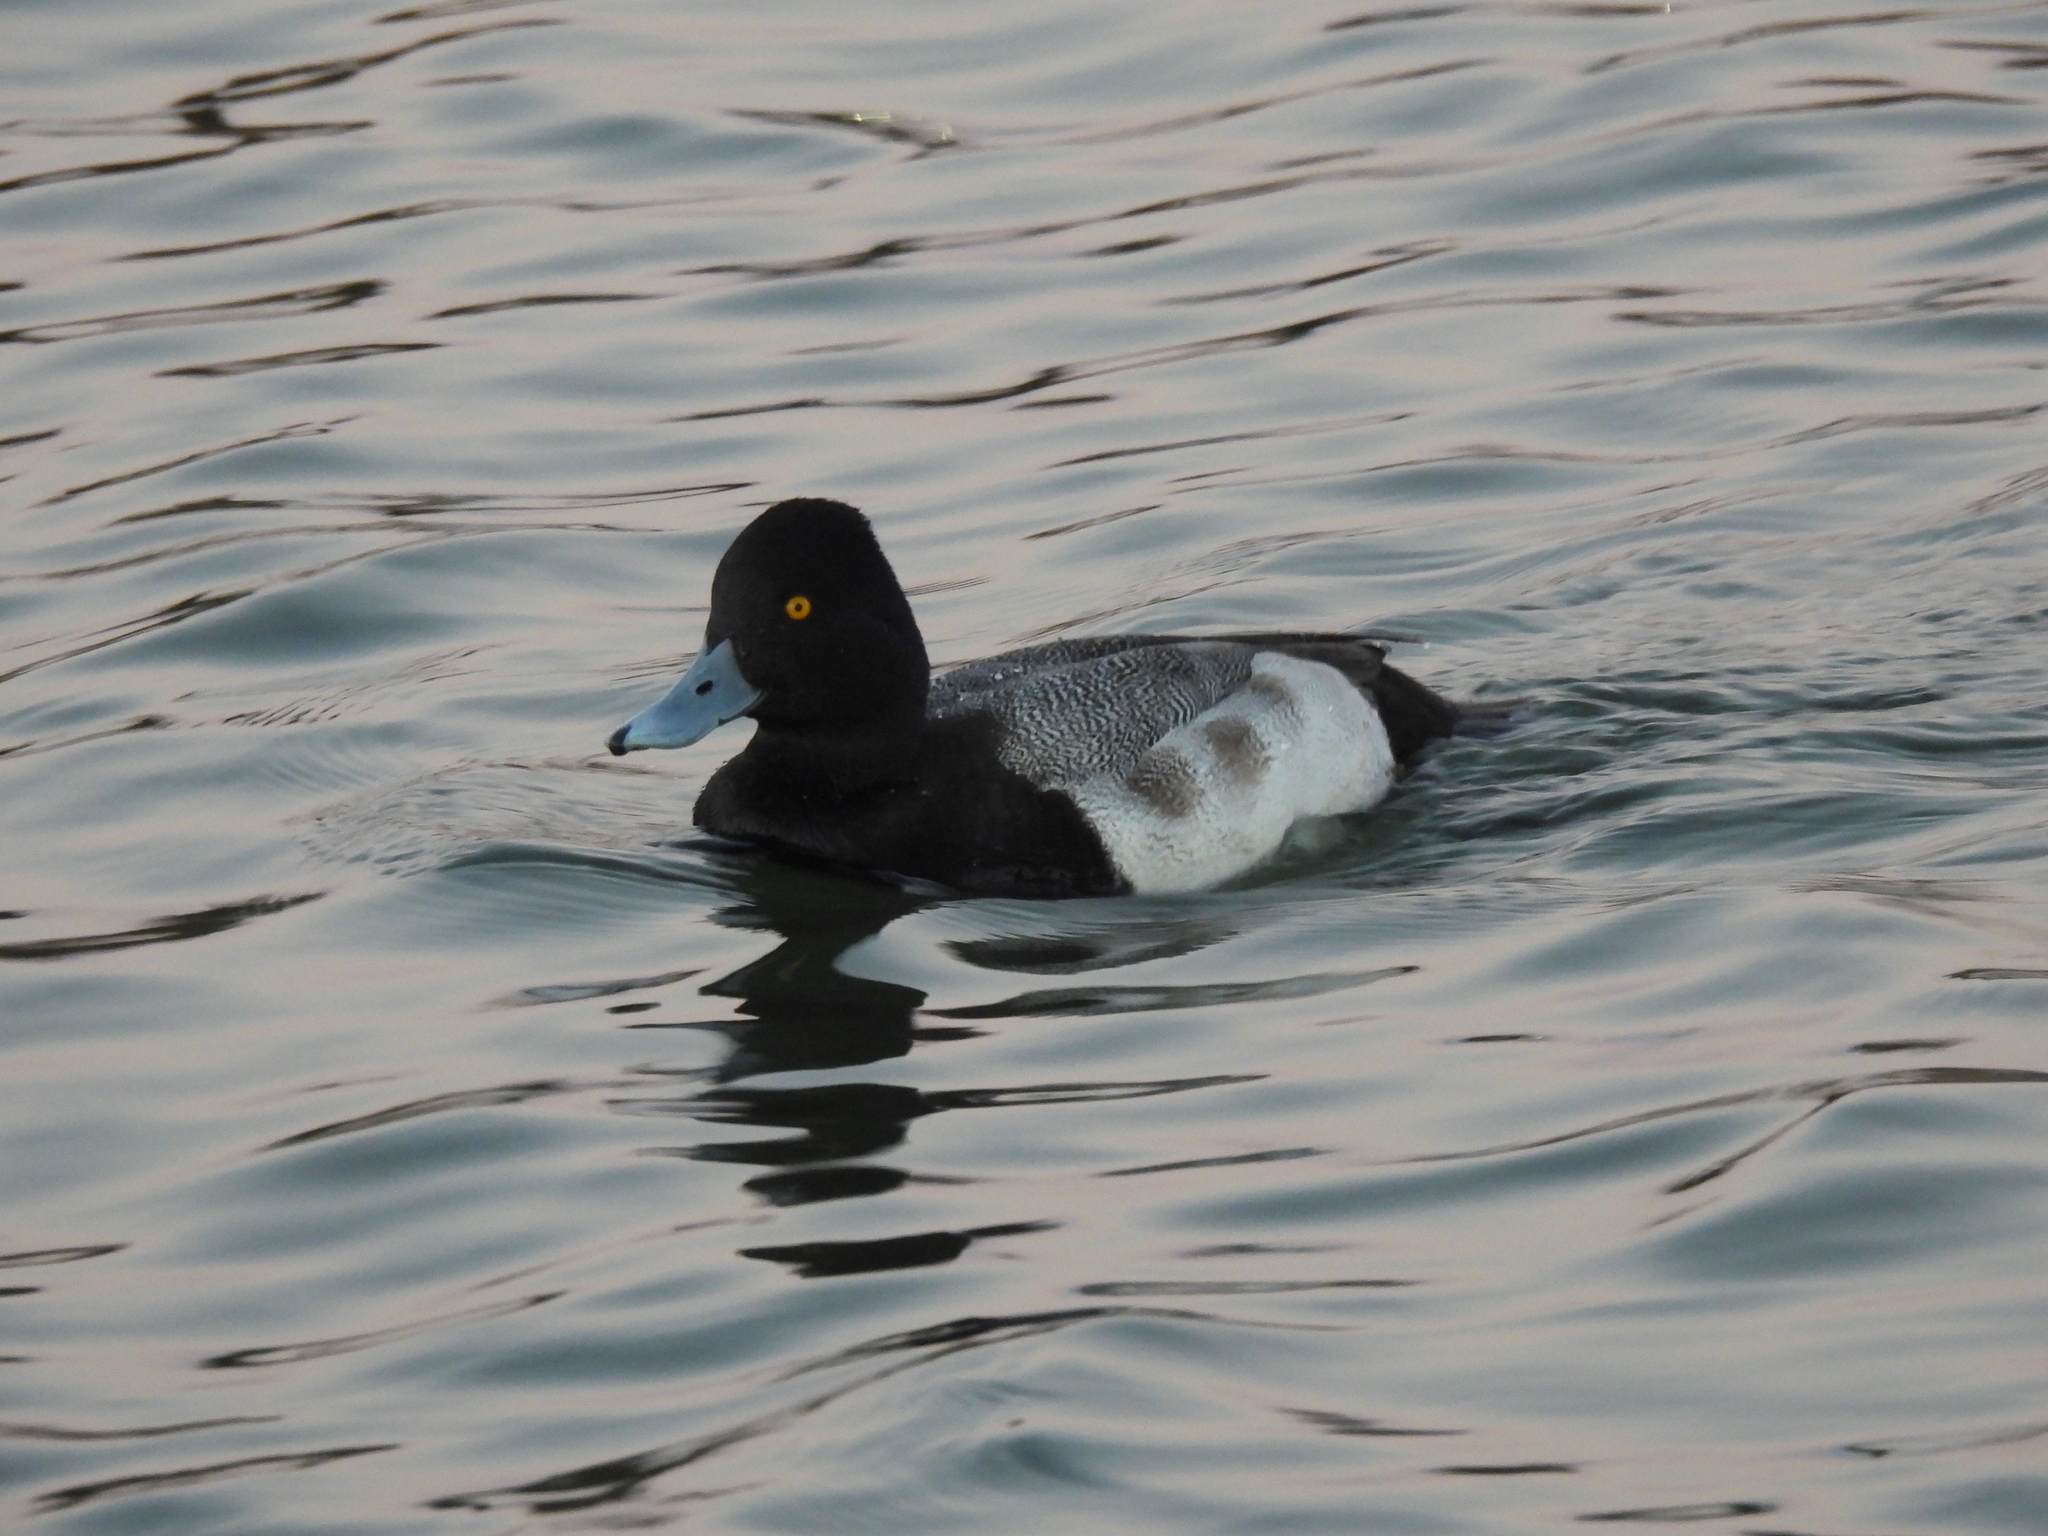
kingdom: Animalia
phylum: Chordata
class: Aves
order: Anseriformes
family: Anatidae
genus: Aythya
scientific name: Aythya affinis
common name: Lesser scaup
